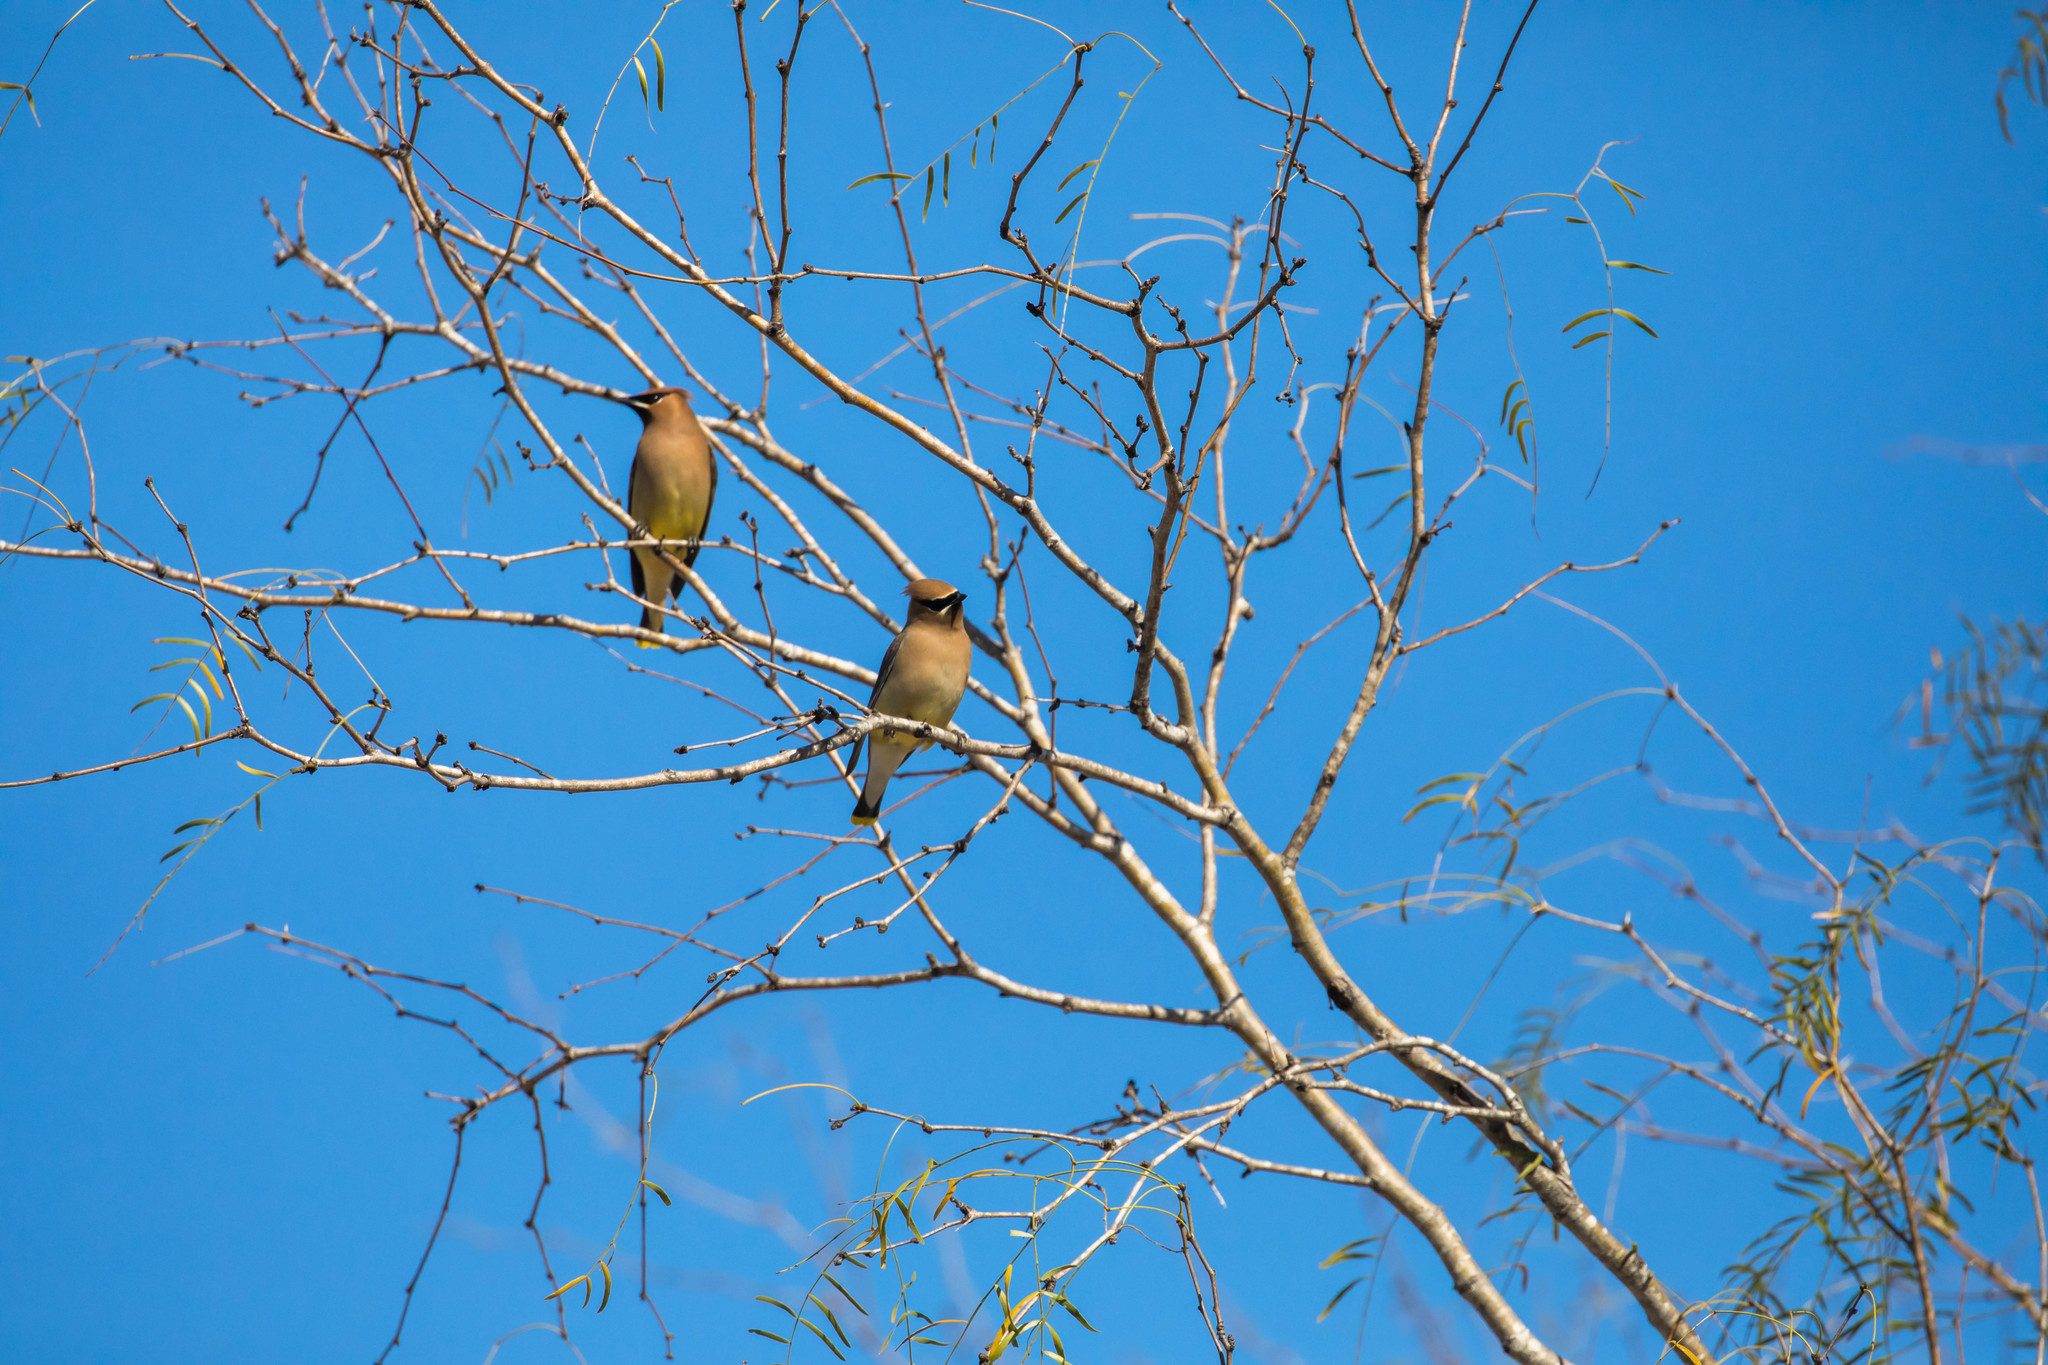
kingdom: Animalia
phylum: Chordata
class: Aves
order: Passeriformes
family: Bombycillidae
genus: Bombycilla
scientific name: Bombycilla cedrorum
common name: Cedar waxwing
